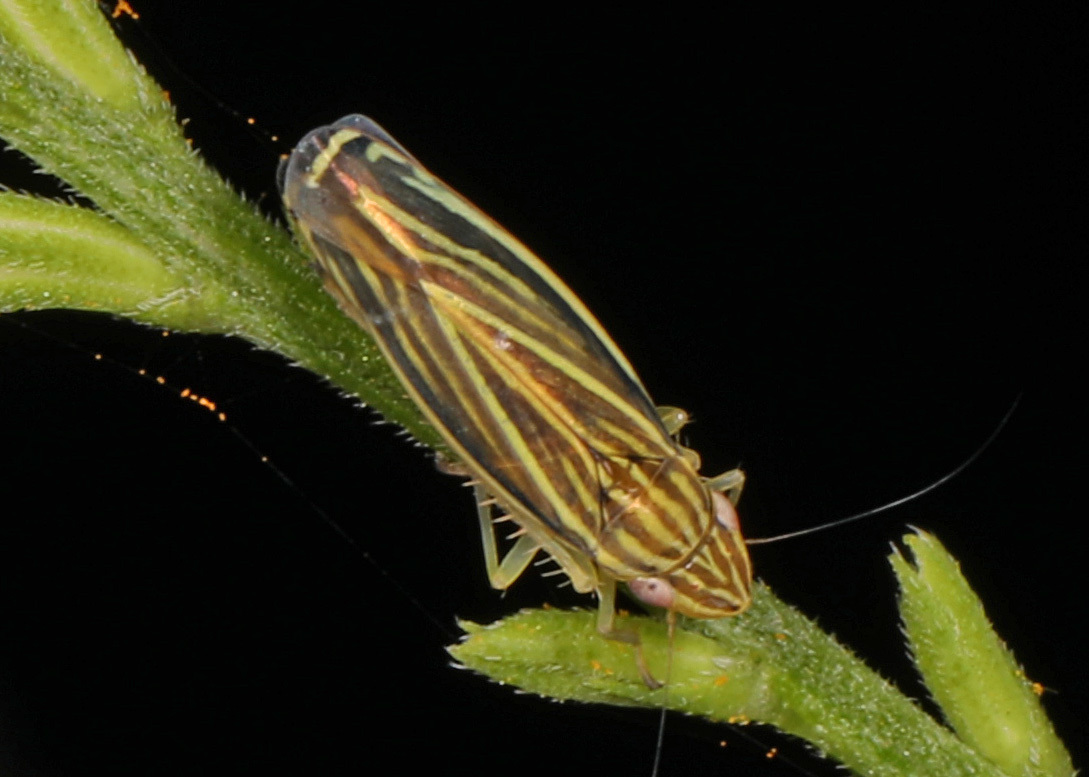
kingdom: Animalia
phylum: Arthropoda
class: Insecta
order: Hemiptera
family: Cicadellidae
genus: Sibovia
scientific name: Sibovia occatoria
